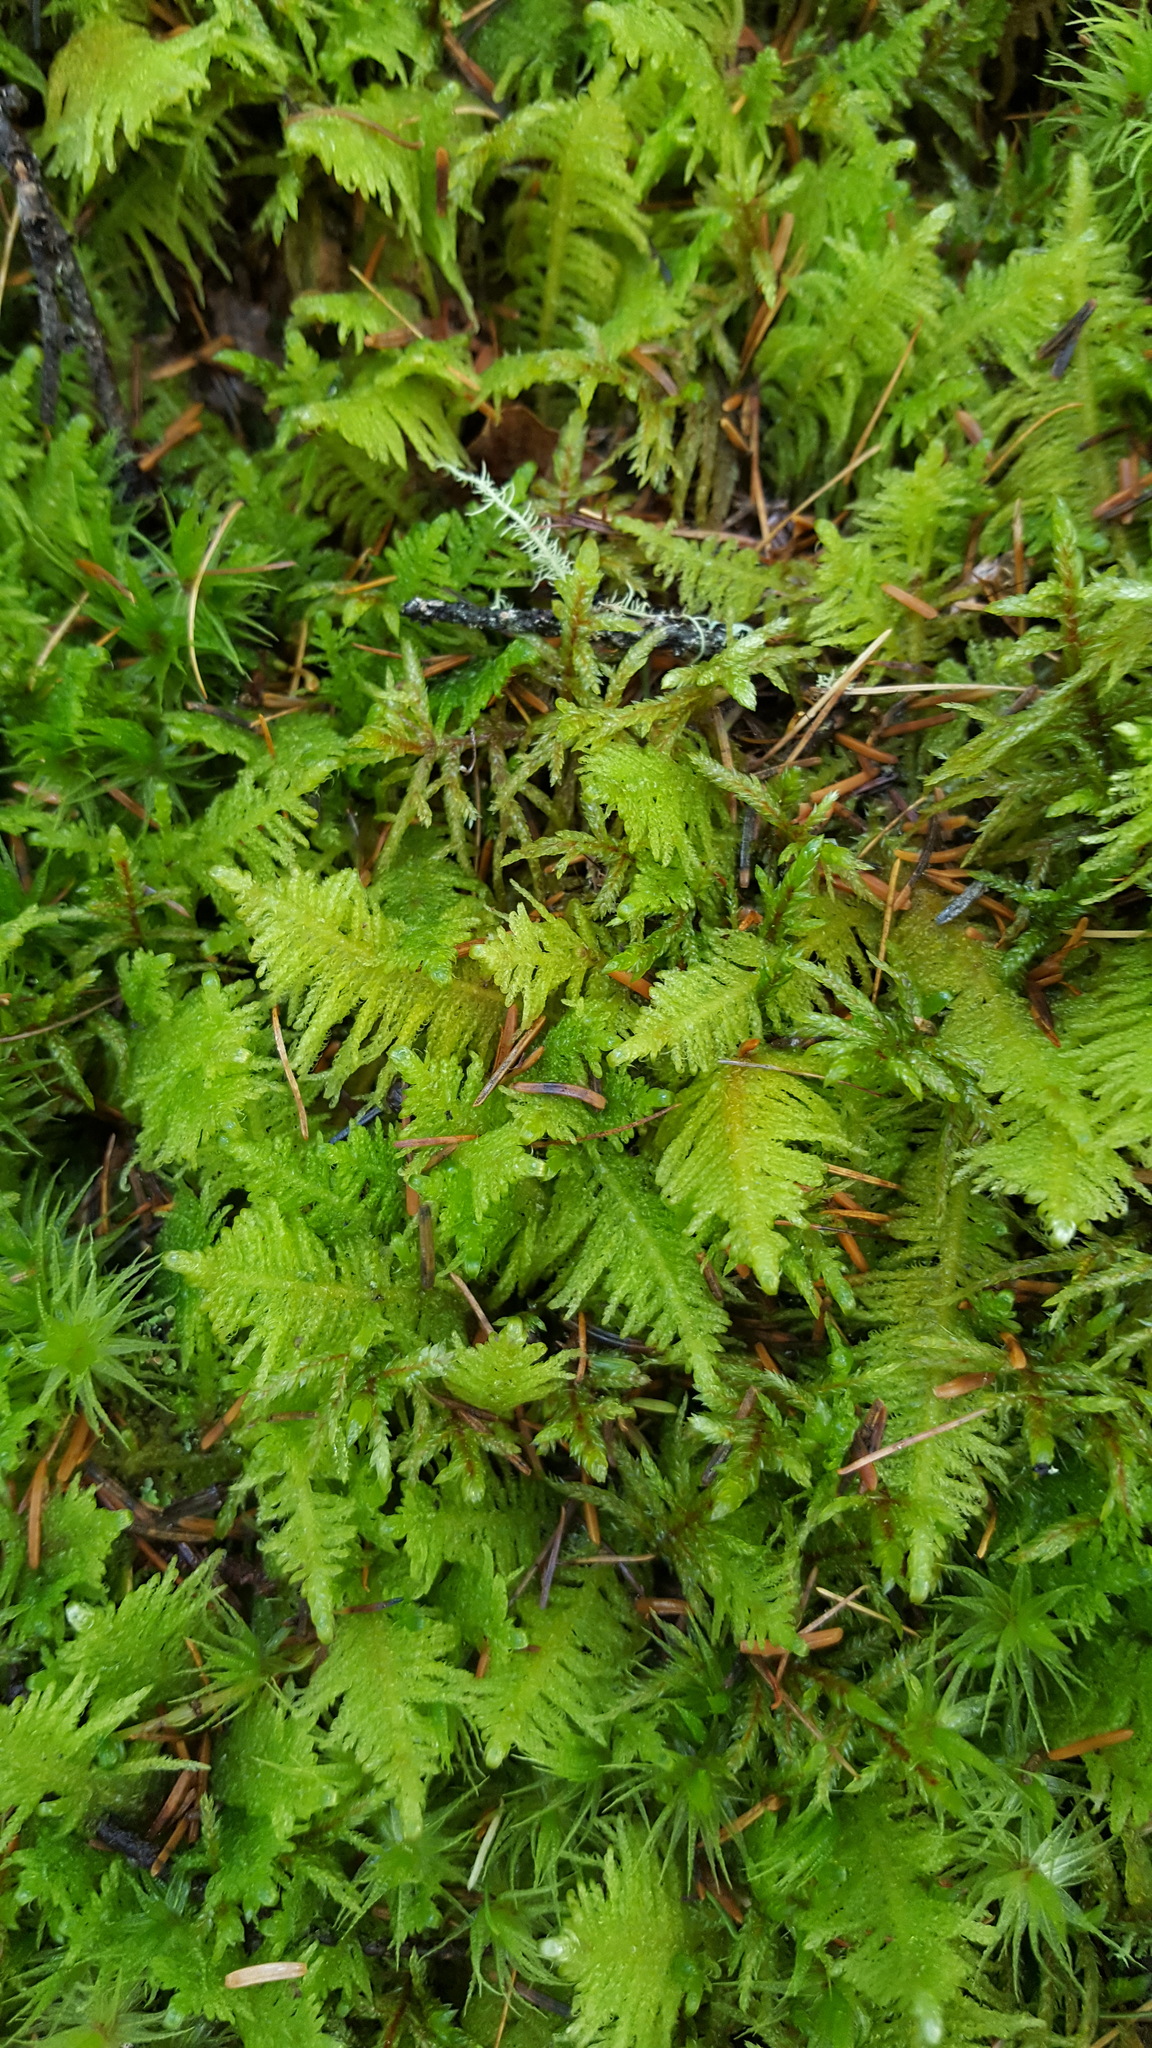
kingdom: Plantae
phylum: Bryophyta
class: Bryopsida
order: Hypnales
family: Pylaisiaceae
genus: Ptilium
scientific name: Ptilium crista-castrensis
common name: Knight's plume moss
